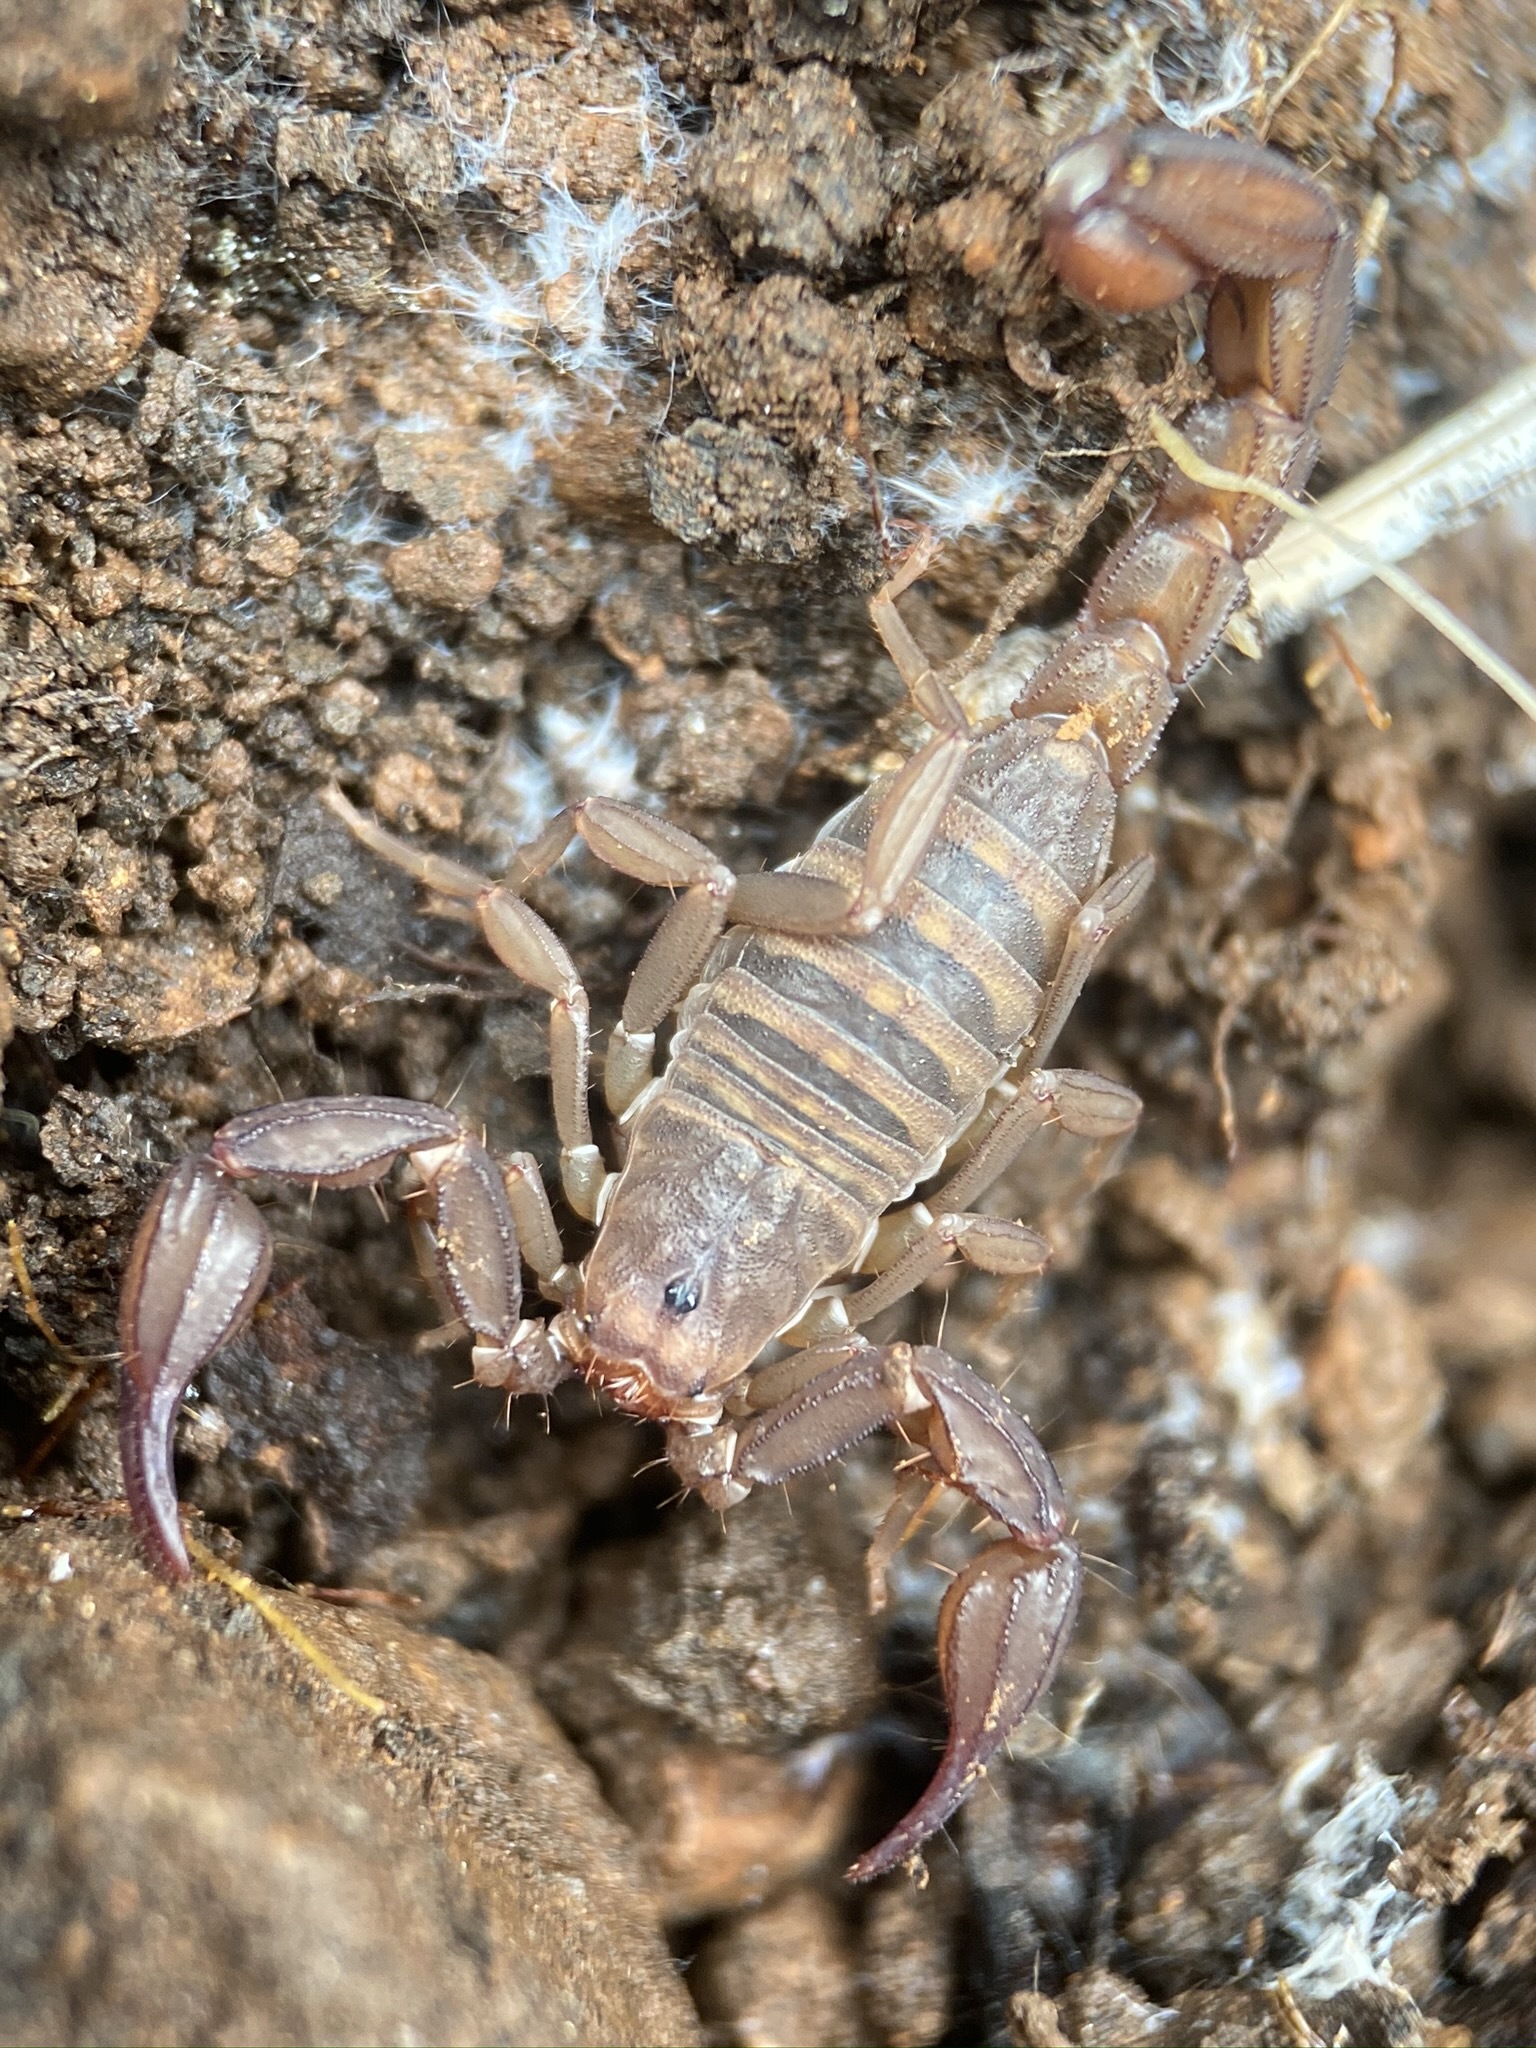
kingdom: Animalia
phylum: Arthropoda
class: Arachnida
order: Scorpiones
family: Vaejovidae
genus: Graemeloweus
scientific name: Graemeloweus iviei
